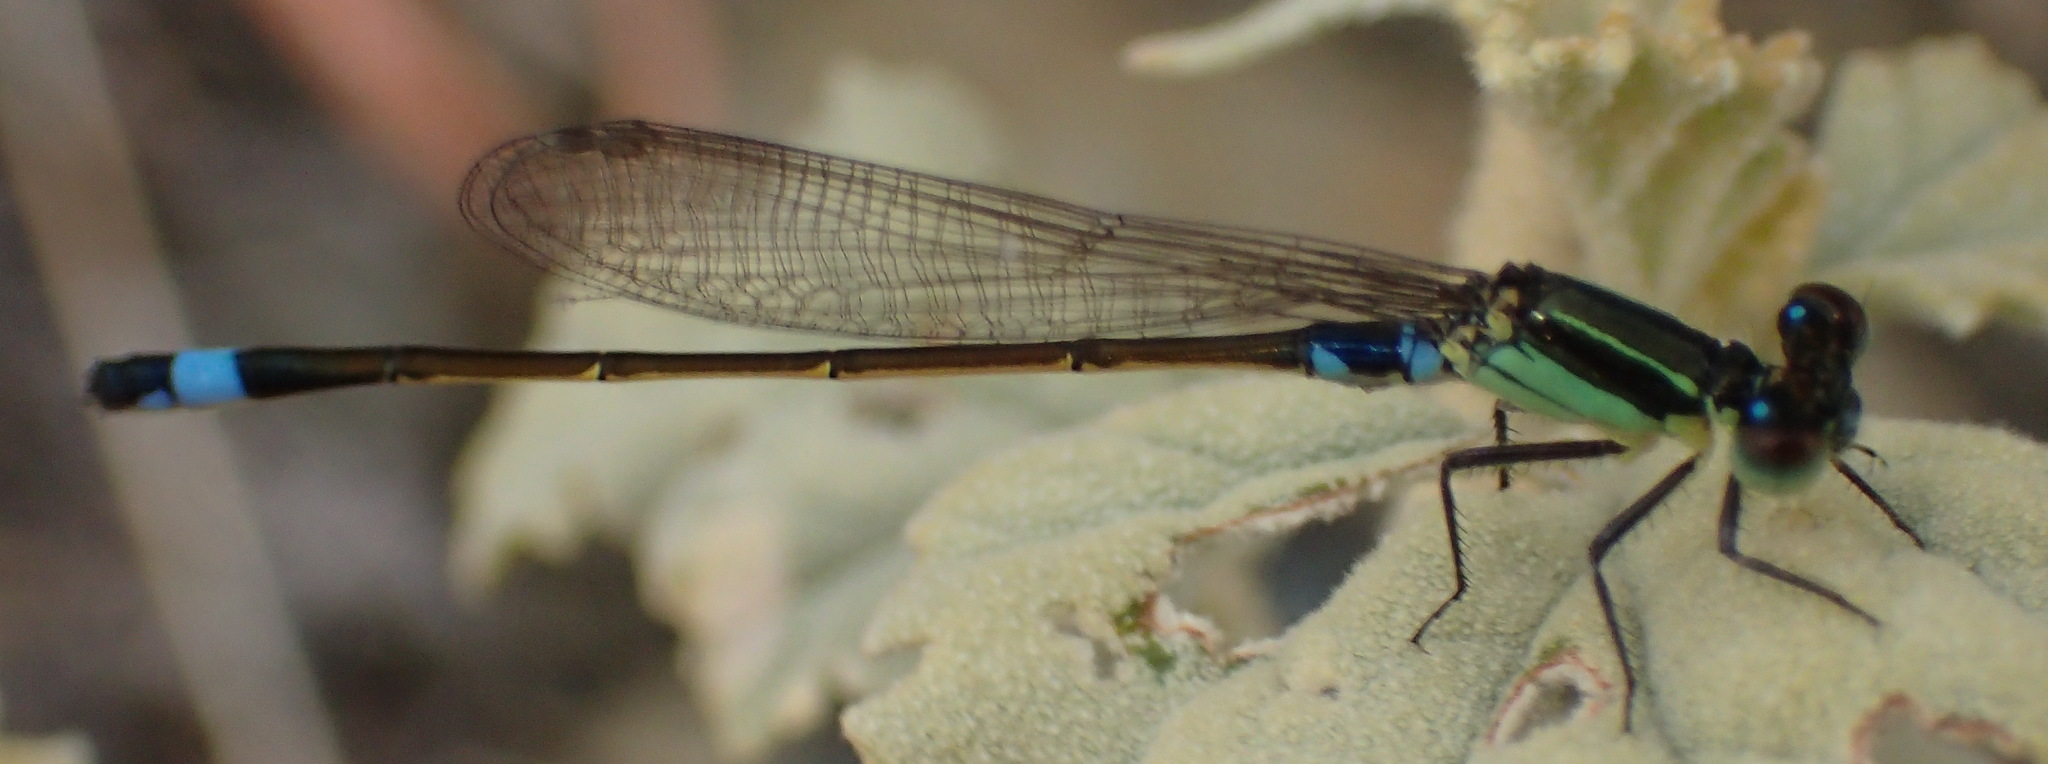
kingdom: Animalia
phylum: Arthropoda
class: Insecta
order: Odonata
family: Coenagrionidae
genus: Ischnura
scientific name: Ischnura senegalensis
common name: Tropical bluetail
